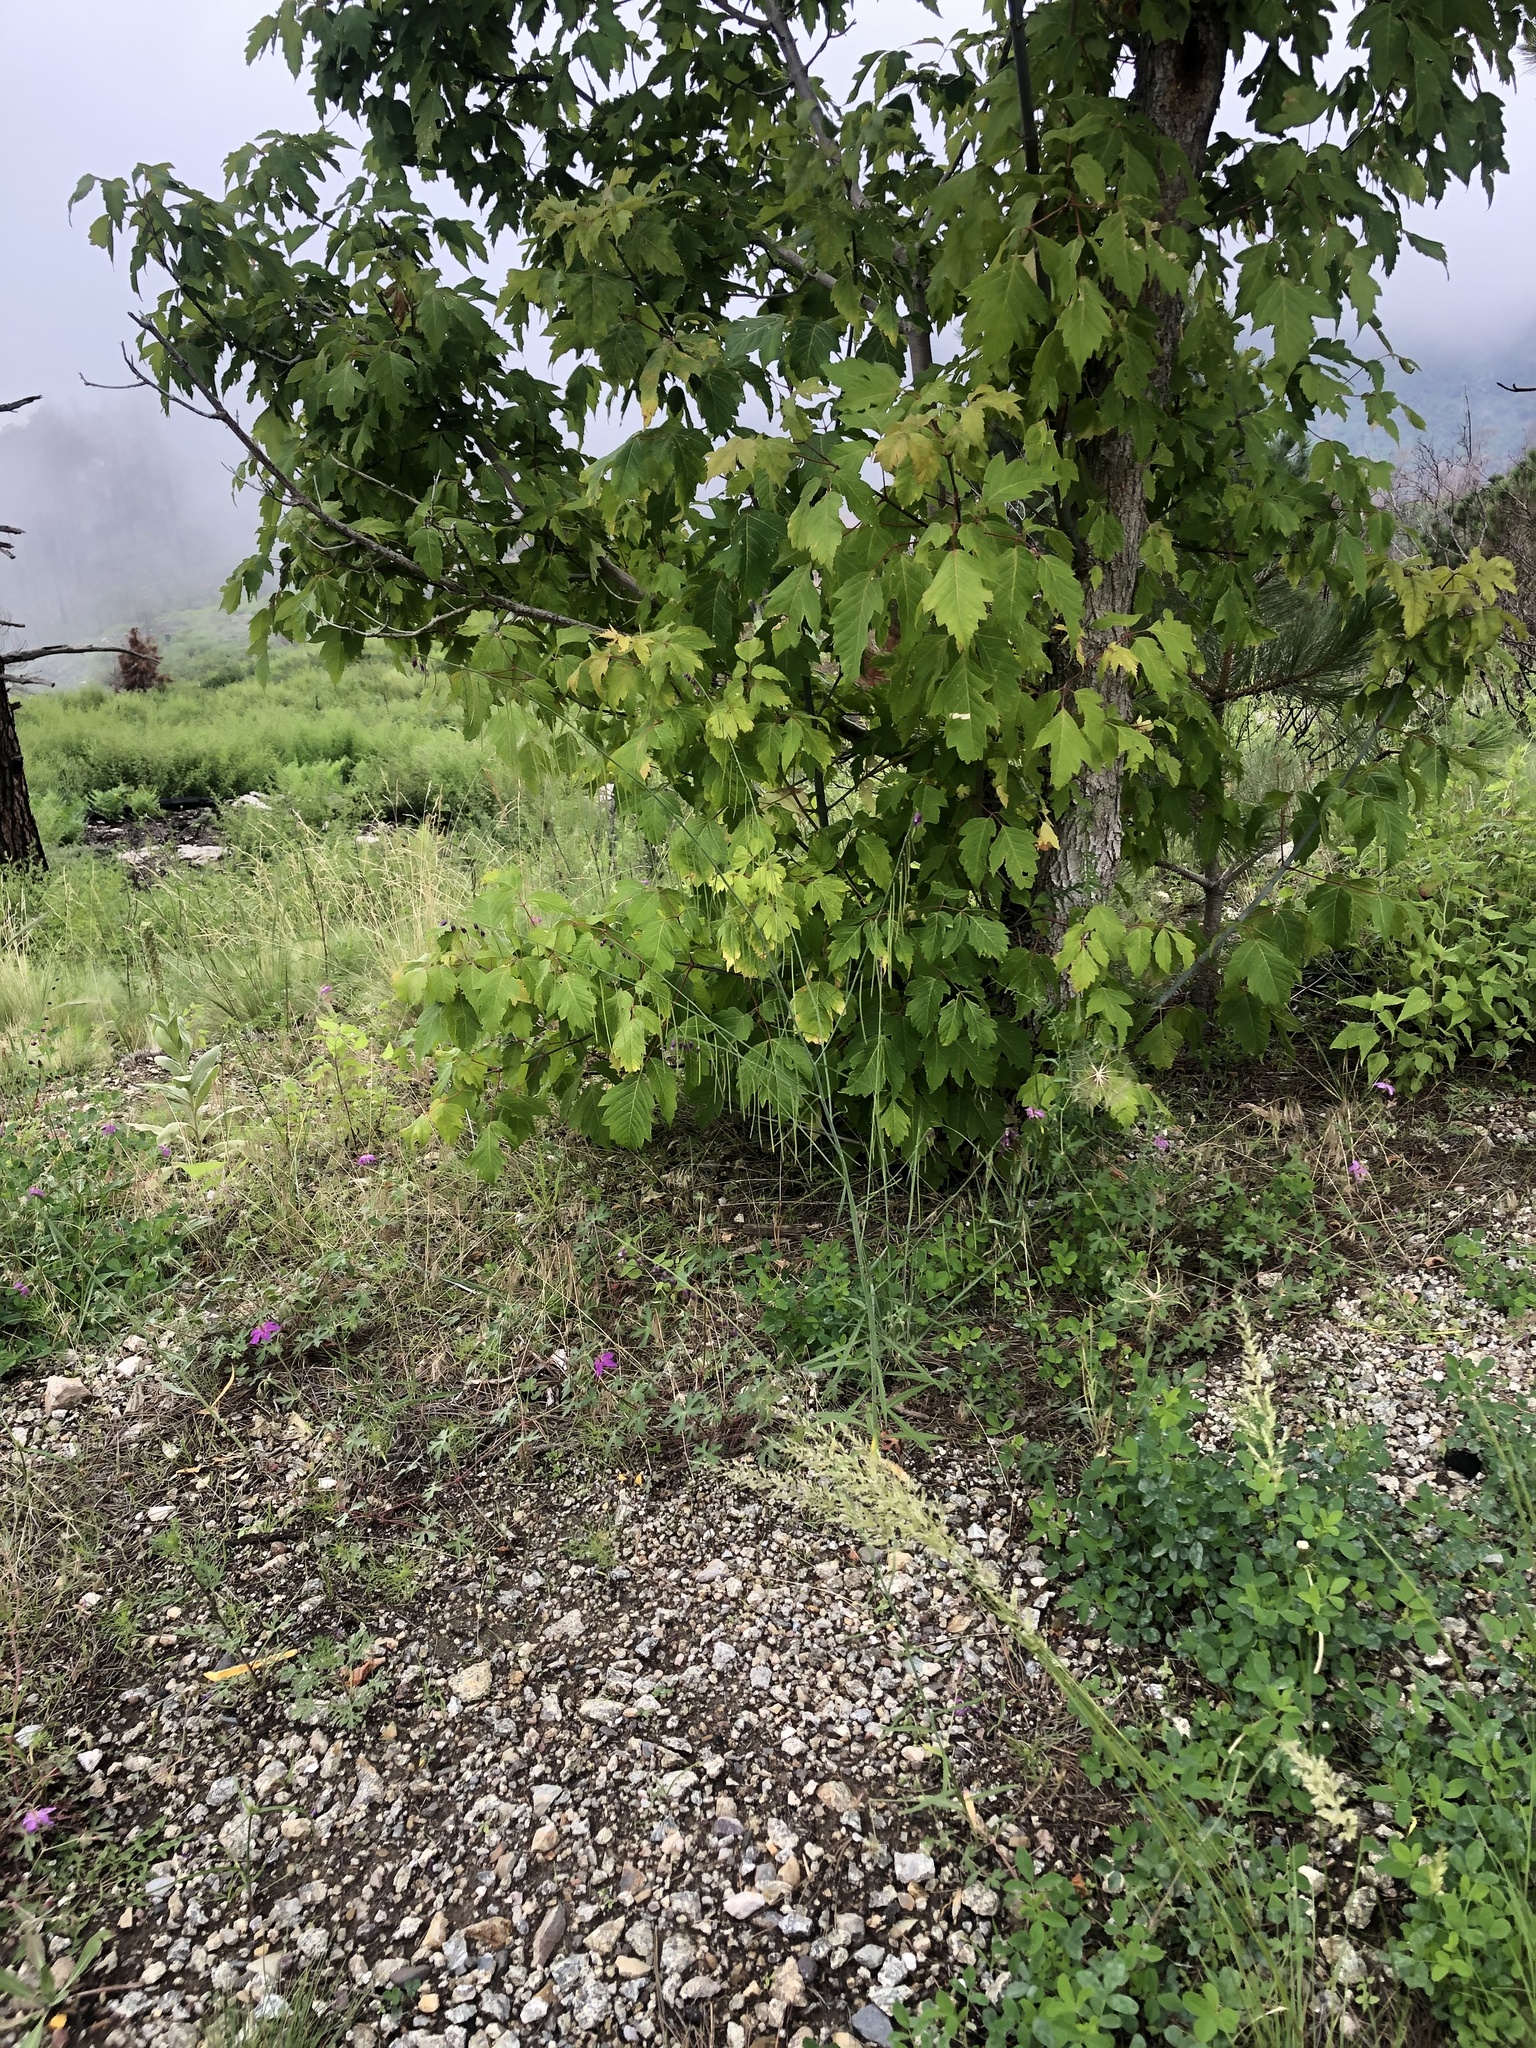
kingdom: Plantae
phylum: Tracheophyta
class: Magnoliopsida
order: Sapindales
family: Sapindaceae
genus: Acer
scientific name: Acer negundo
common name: Ashleaf maple
